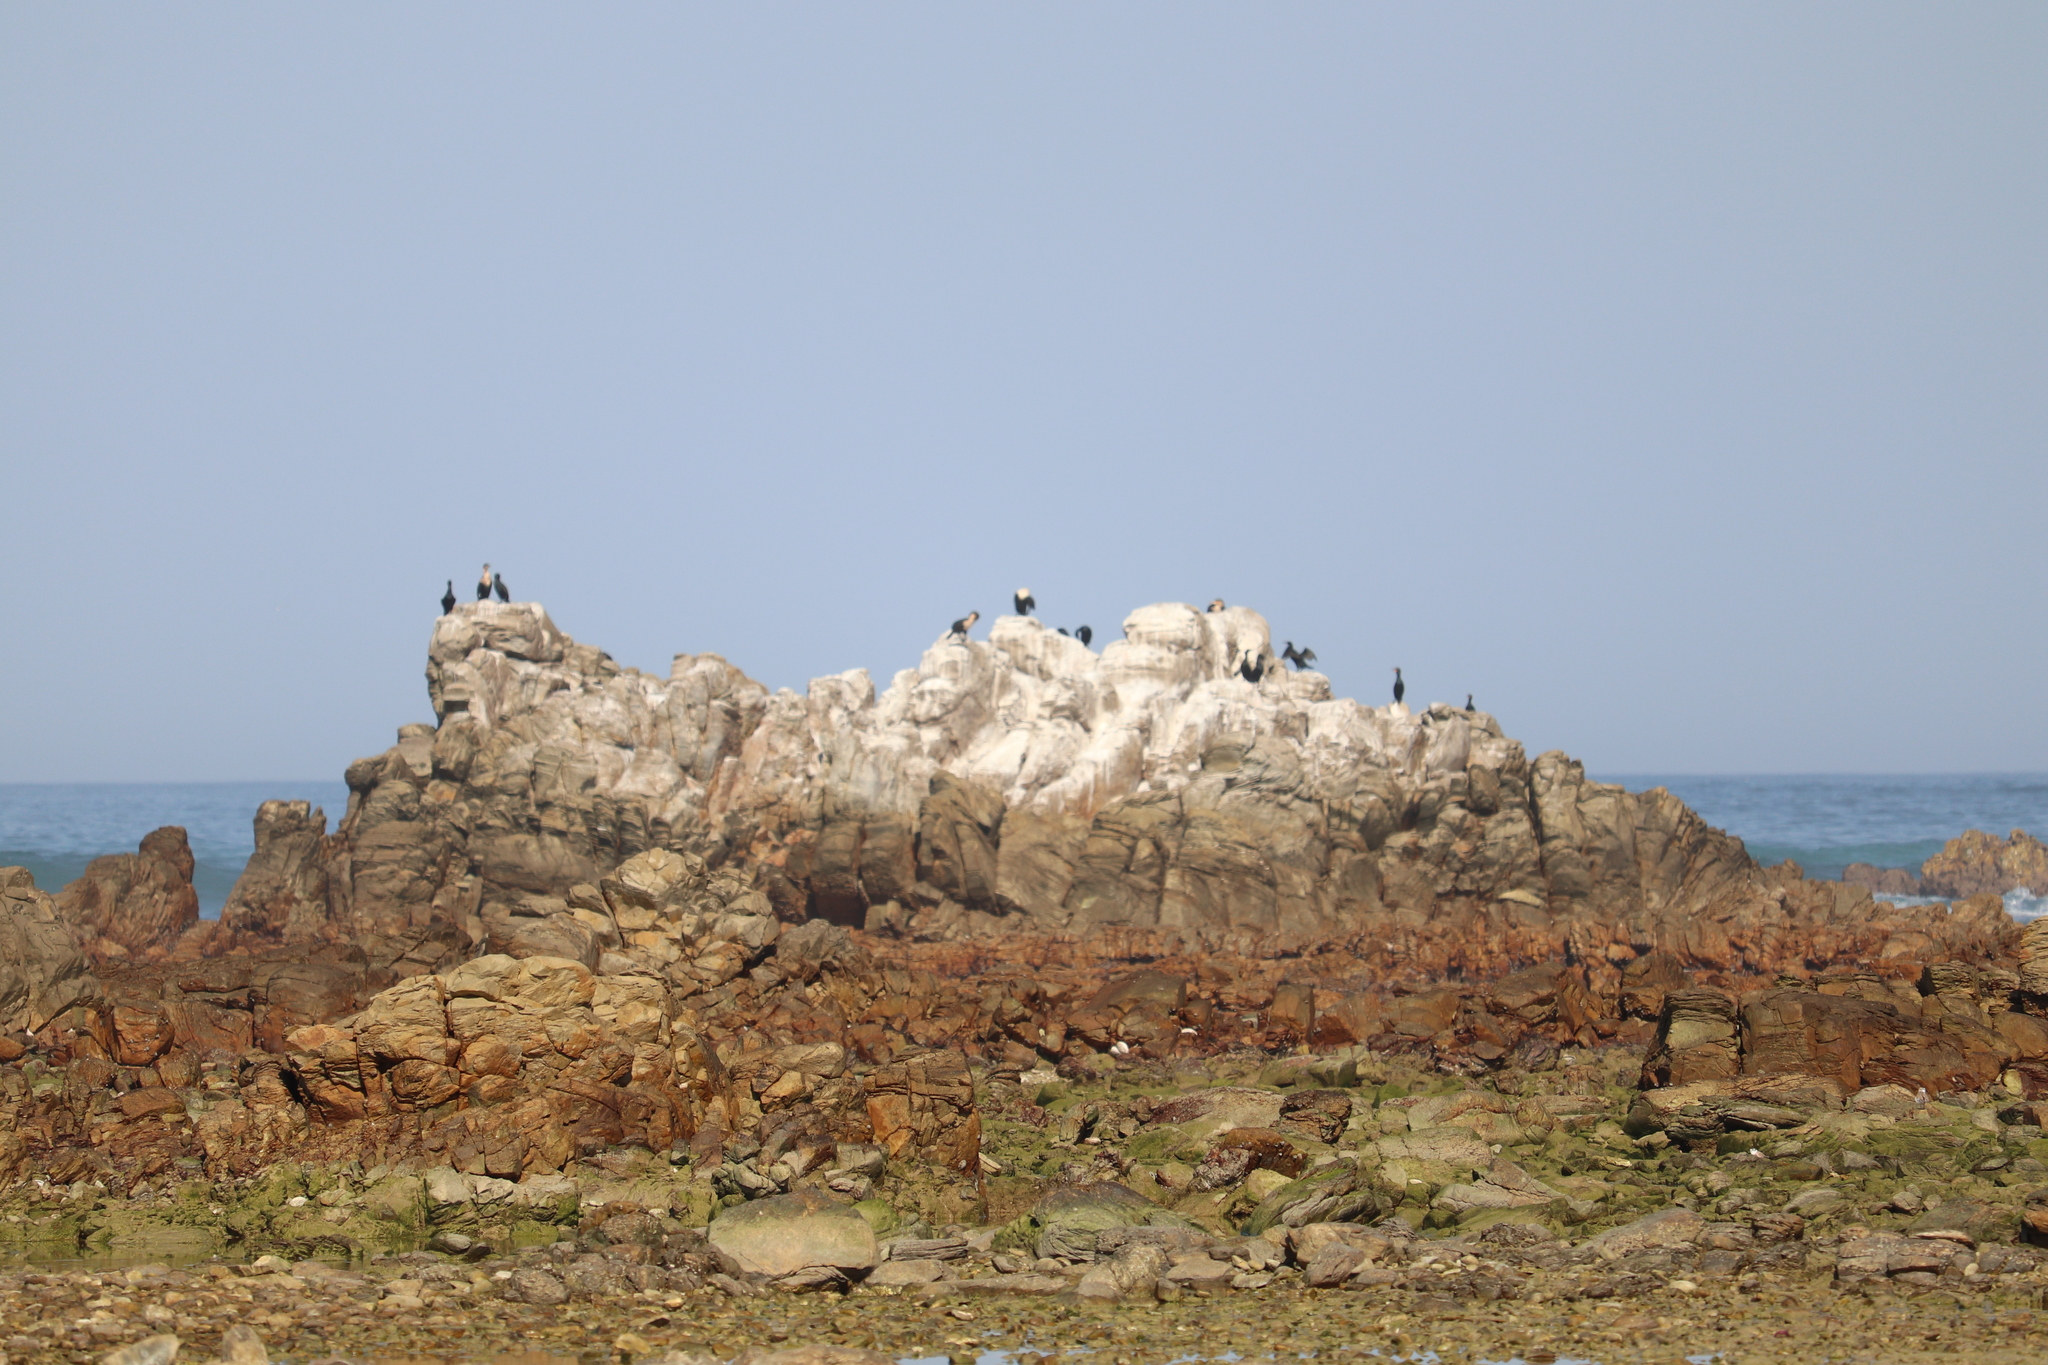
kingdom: Animalia
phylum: Chordata
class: Aves
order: Suliformes
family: Phalacrocoracidae
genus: Phalacrocorax
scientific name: Phalacrocorax carbo
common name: Great cormorant
